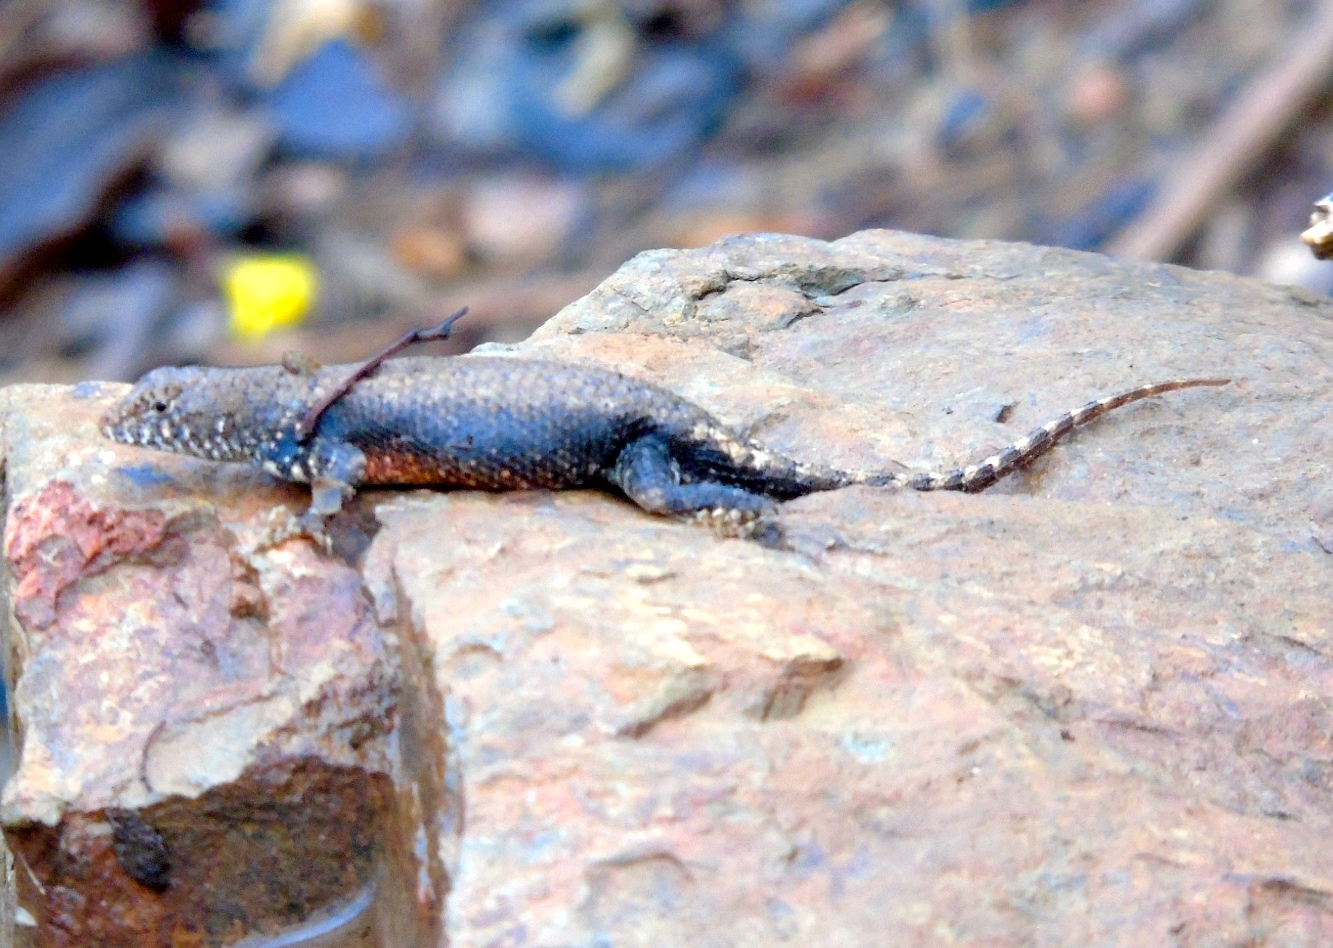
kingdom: Animalia
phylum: Chordata
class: Squamata
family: Phrynosomatidae
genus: Sceloporus
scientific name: Sceloporus nelsoni
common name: Nelson's spiny lizard
